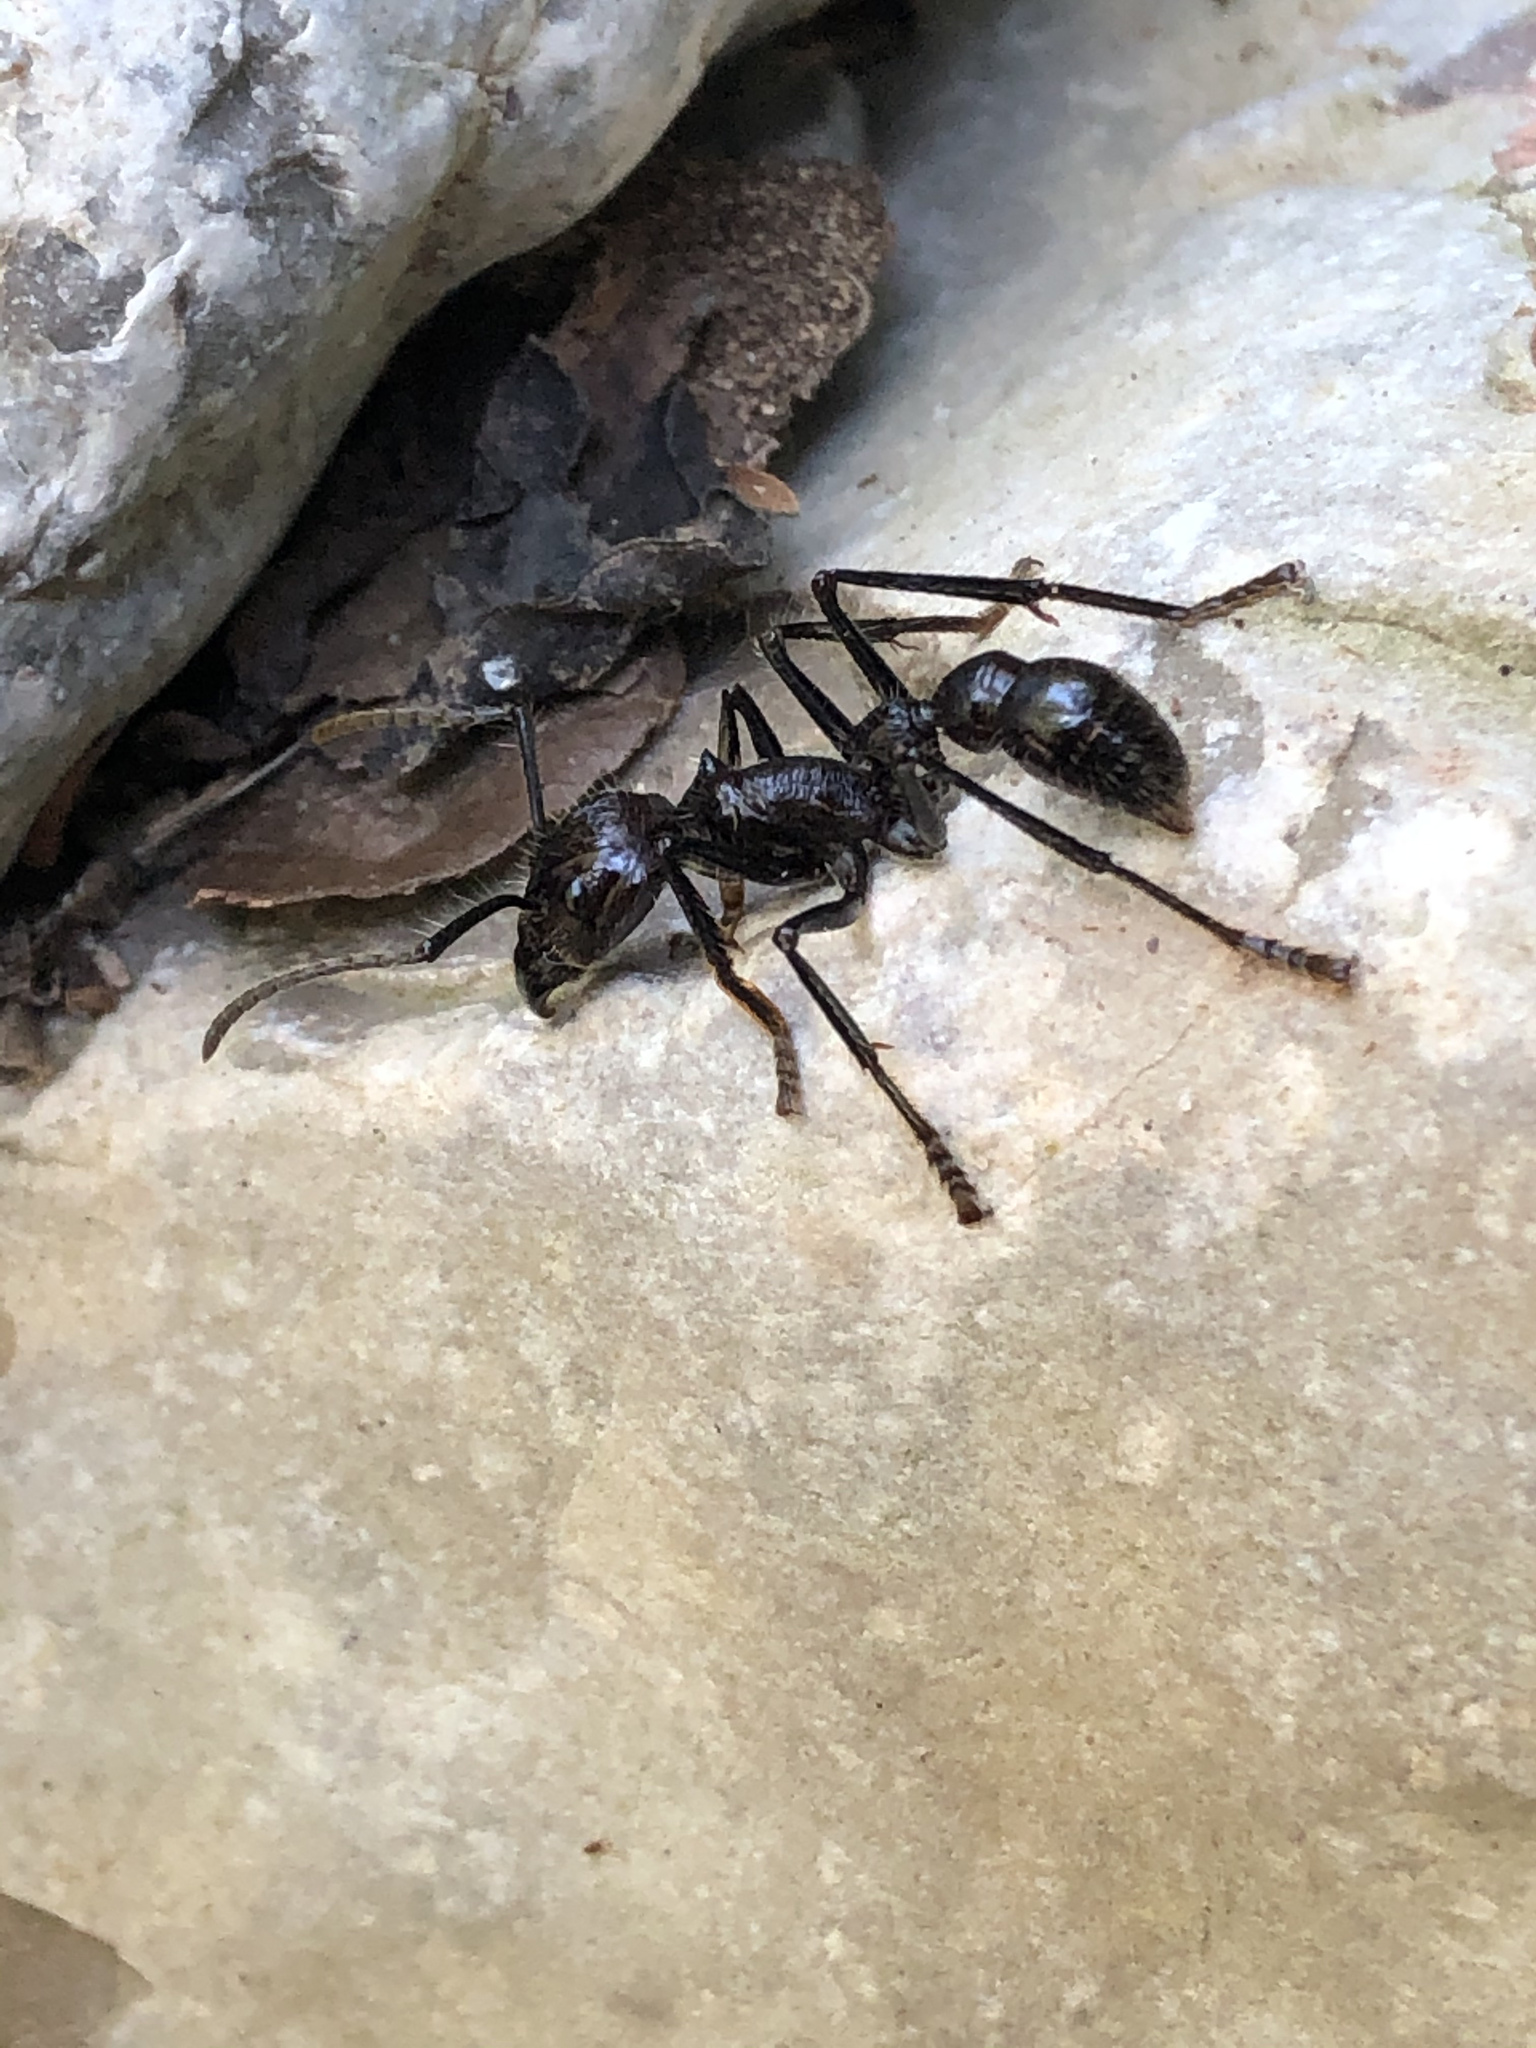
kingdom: Animalia
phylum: Arthropoda
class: Insecta
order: Hymenoptera
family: Formicidae
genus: Paraponera
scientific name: Paraponera clavata
